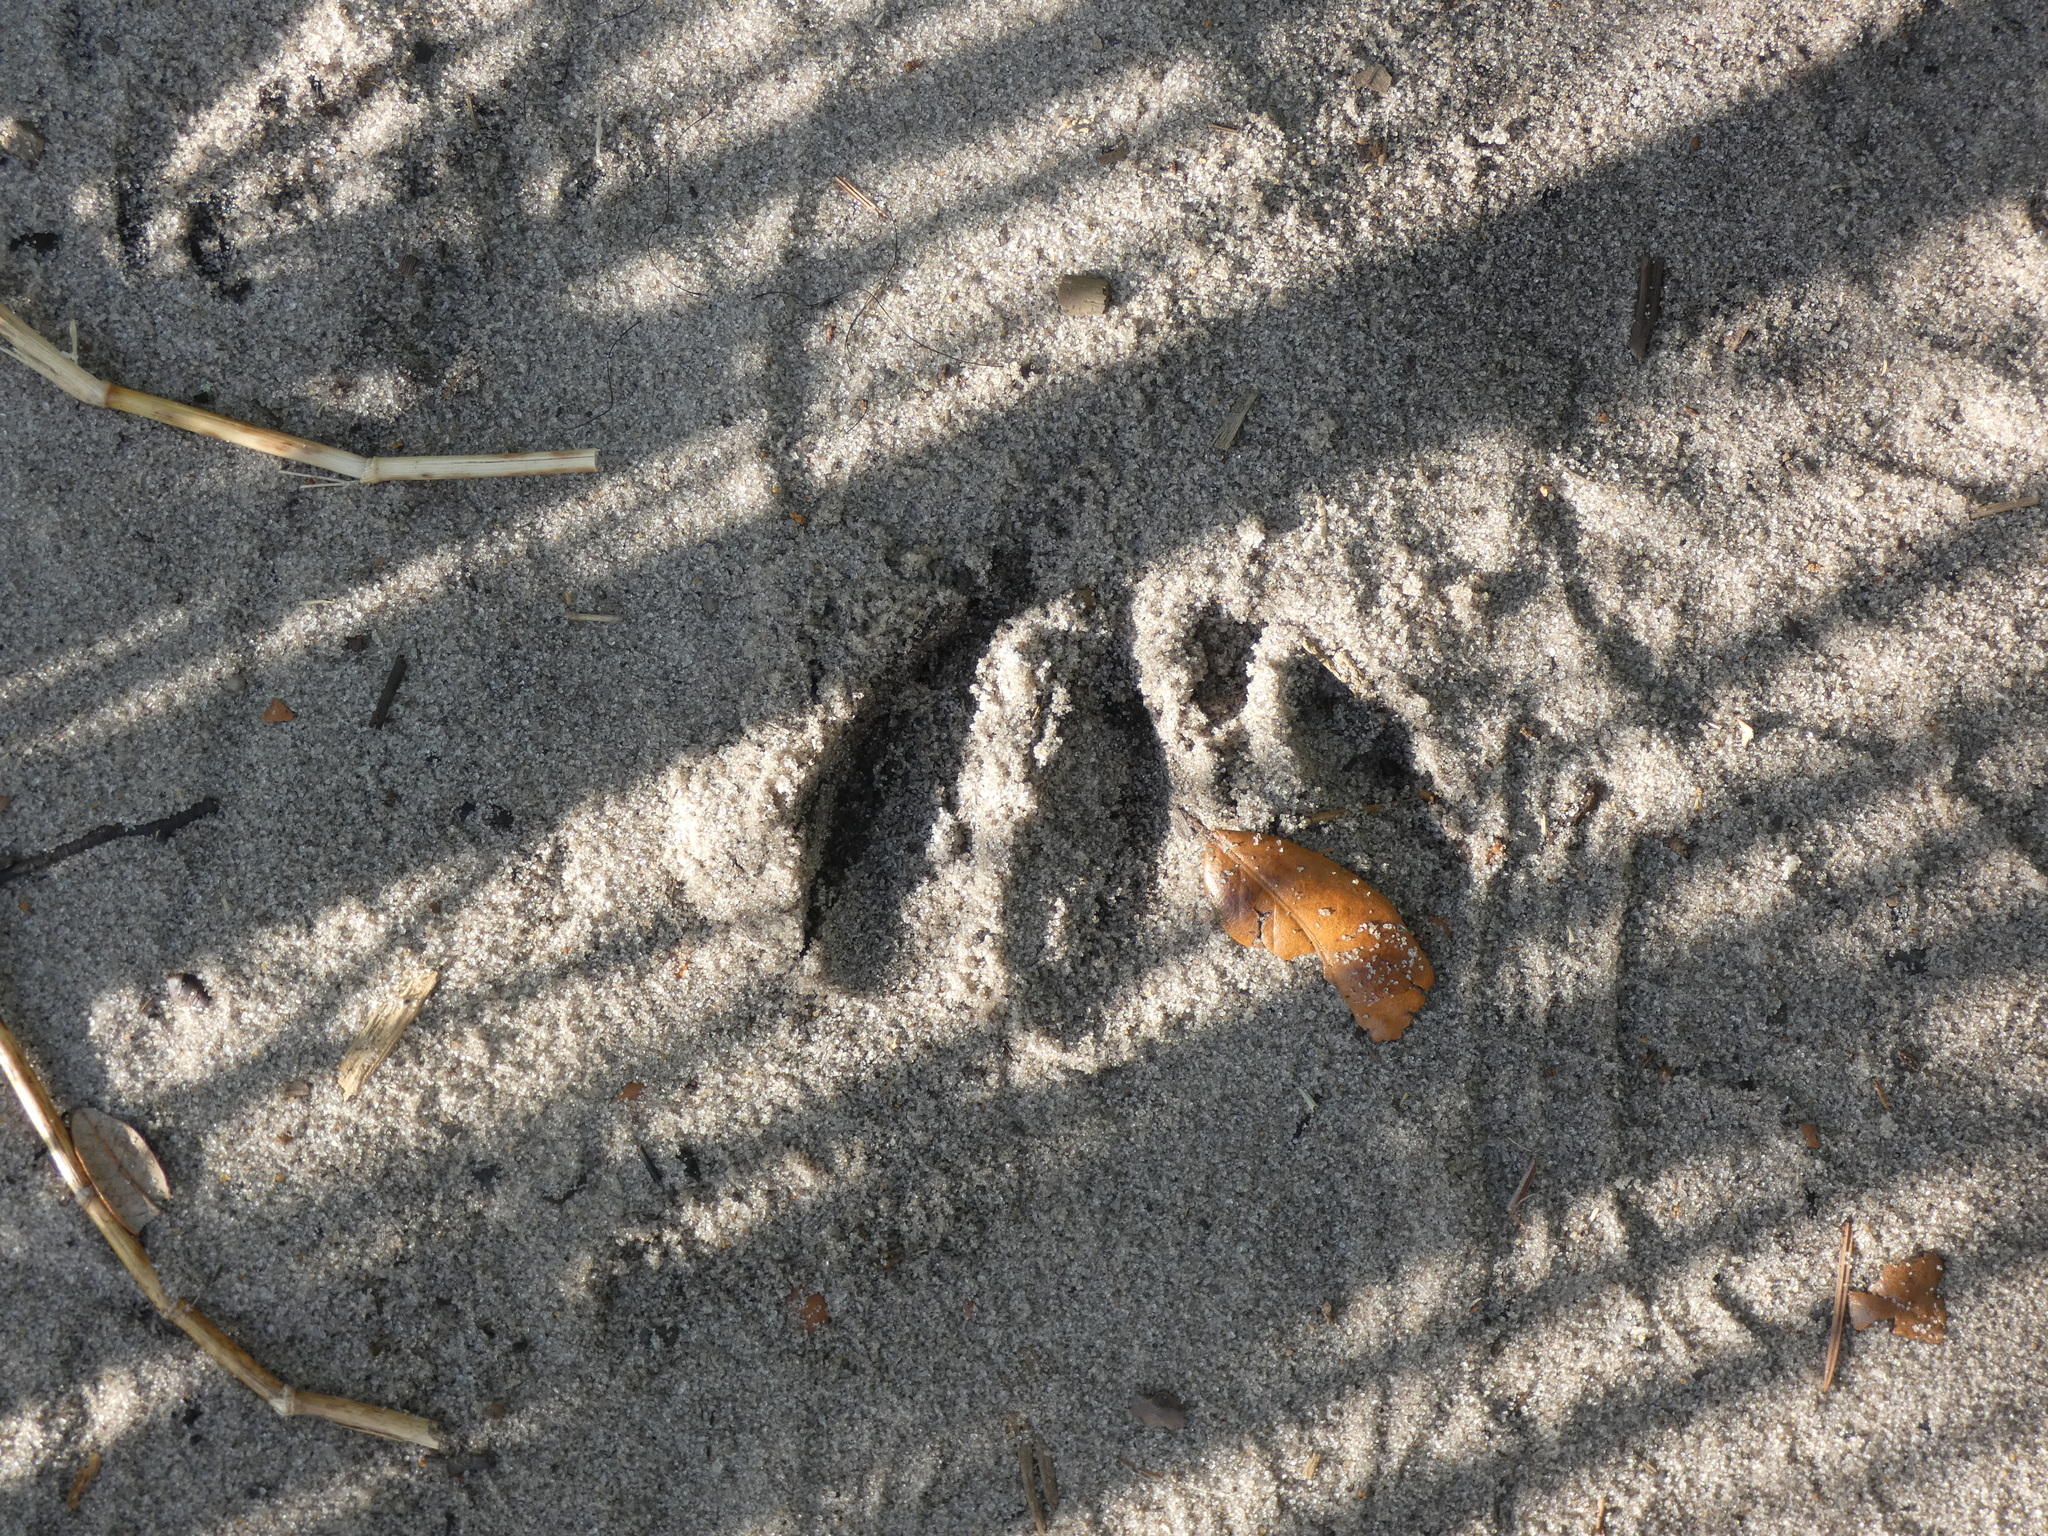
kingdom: Animalia
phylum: Chordata
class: Mammalia
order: Artiodactyla
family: Cervidae
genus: Odocoileus
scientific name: Odocoileus virginianus
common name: White-tailed deer
